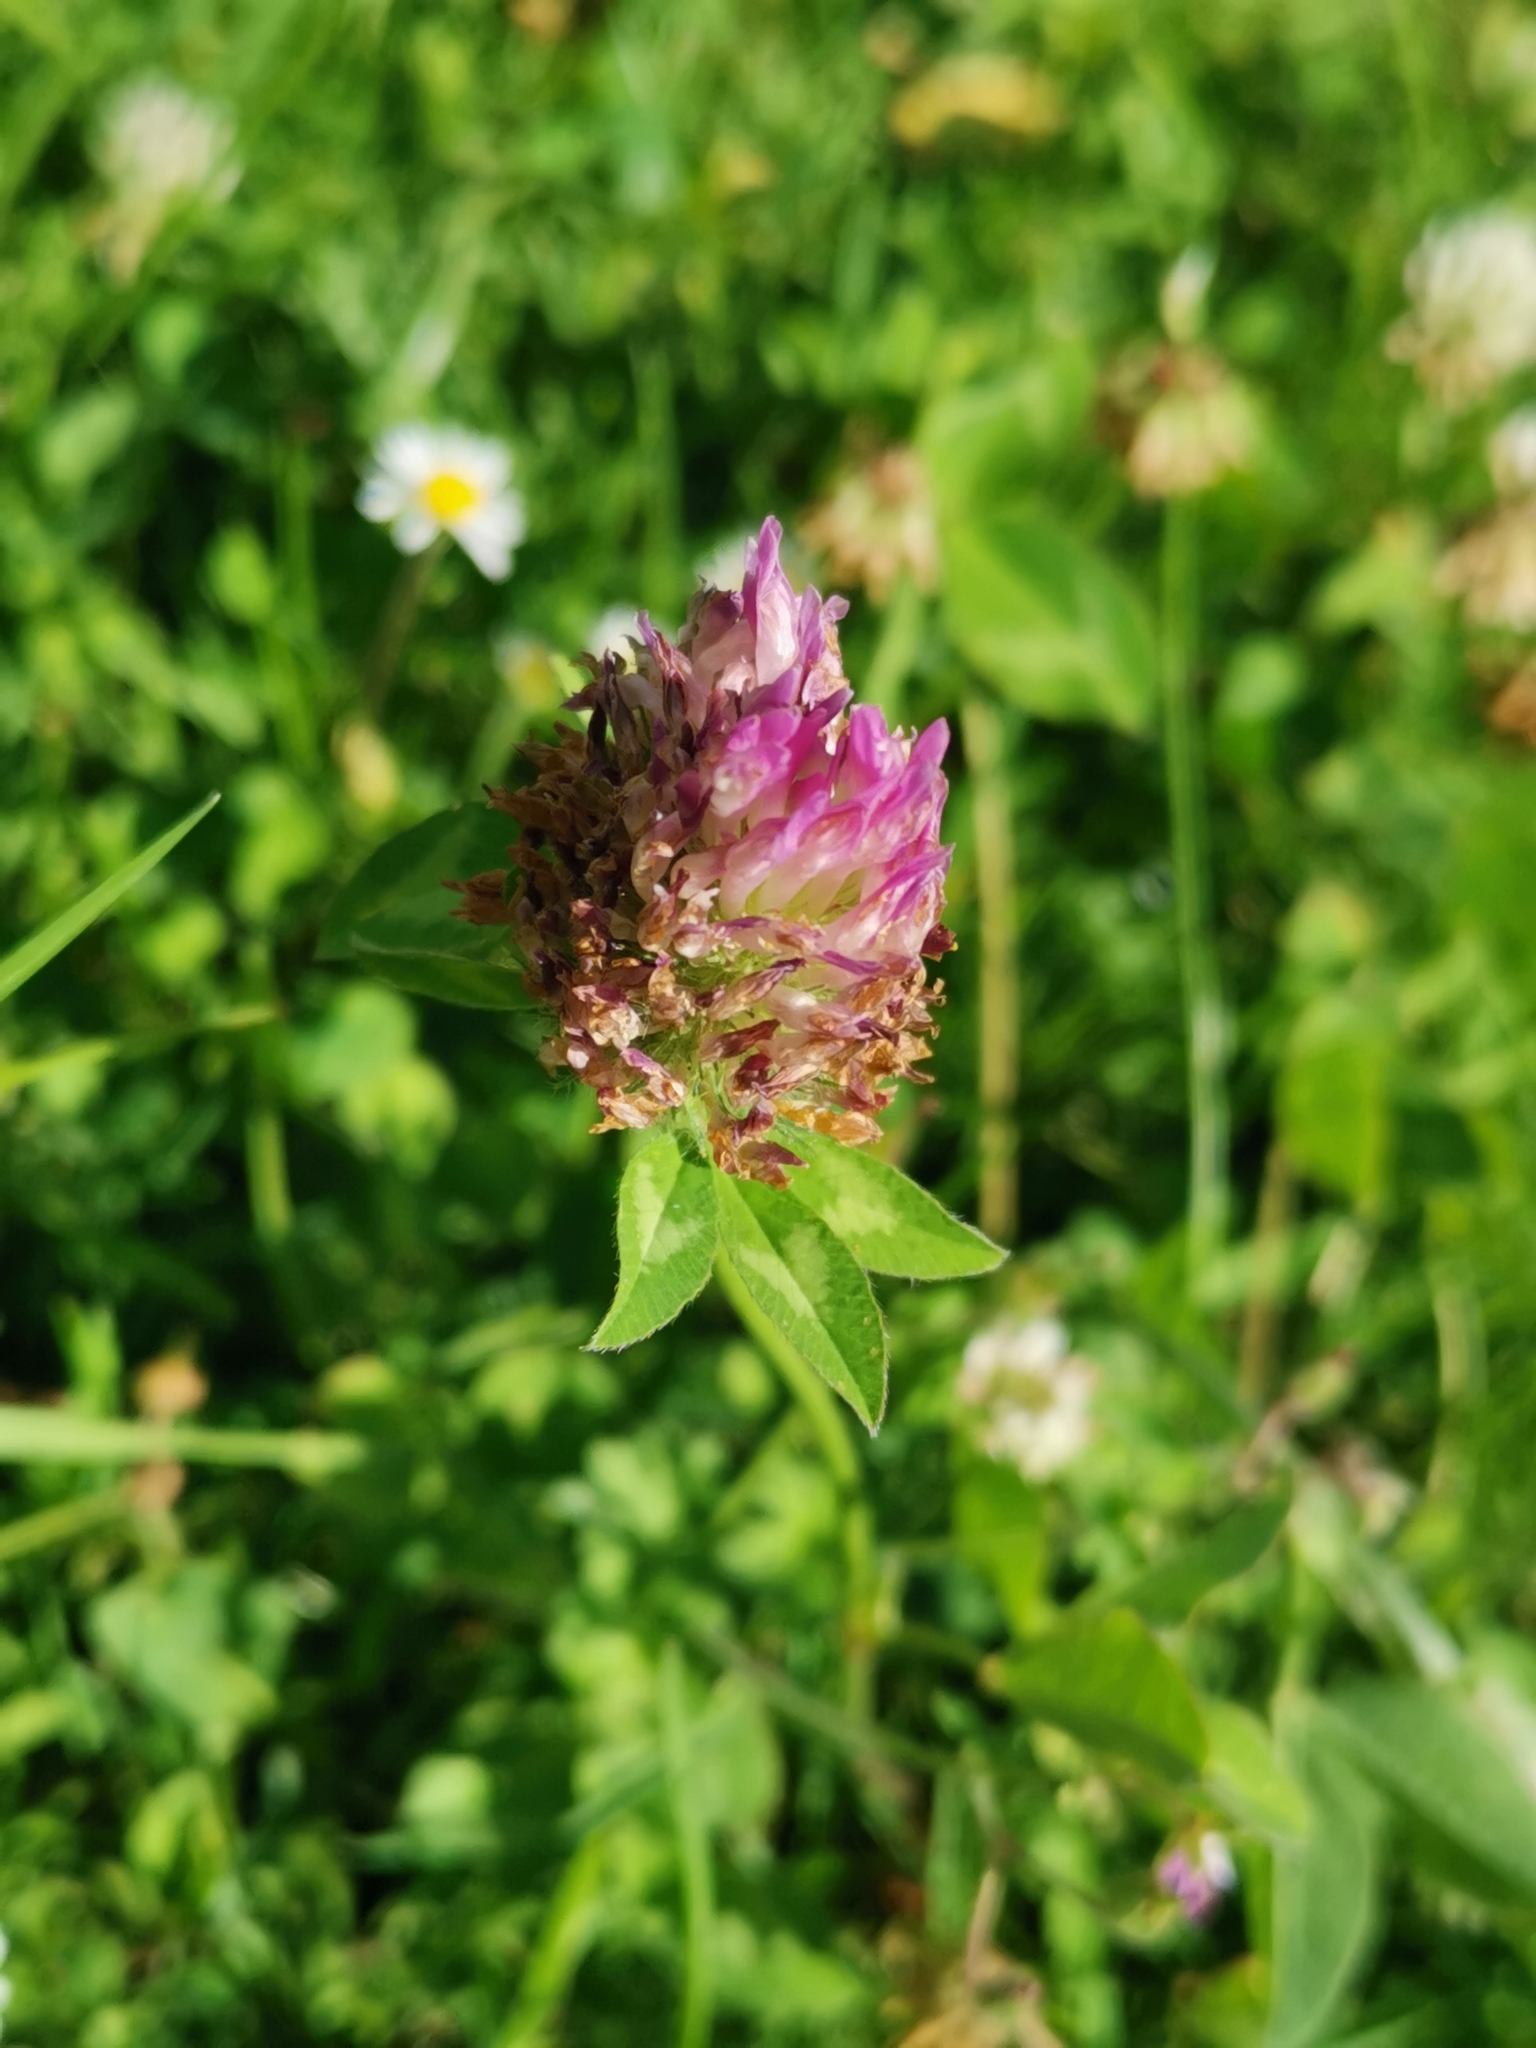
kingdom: Plantae
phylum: Tracheophyta
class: Magnoliopsida
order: Fabales
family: Fabaceae
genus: Trifolium
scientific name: Trifolium pratense
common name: Red clover
